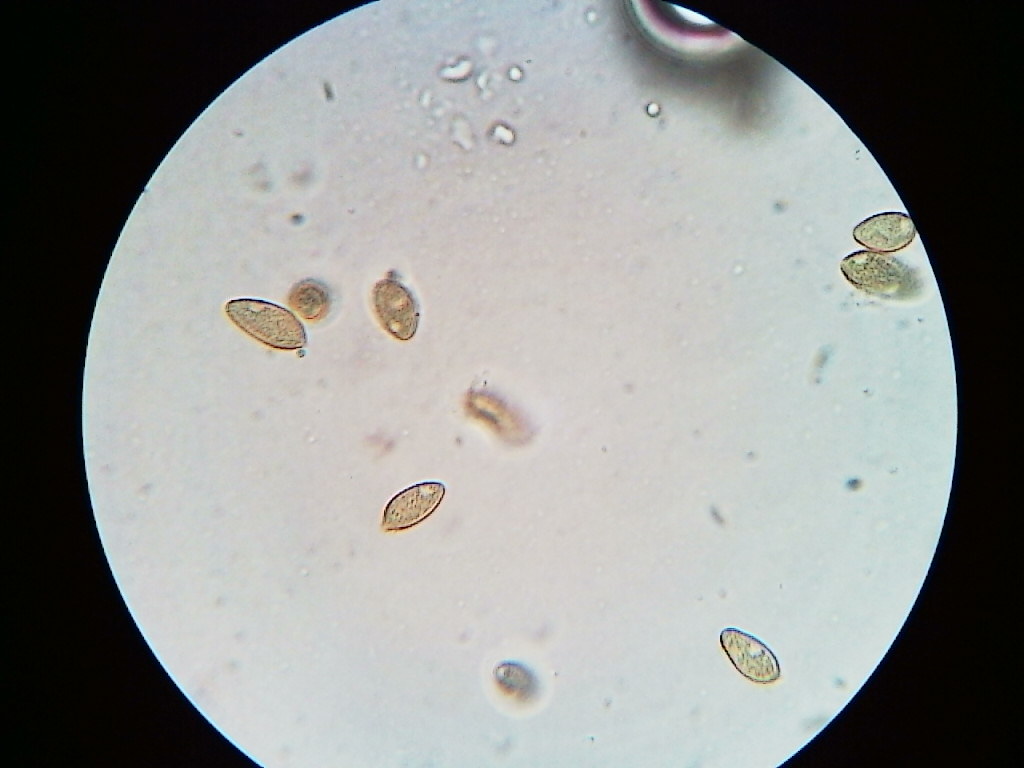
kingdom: Fungi
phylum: Basidiomycota
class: Agaricomycetes
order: Agaricales
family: Hymenogastraceae
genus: Hebeloma
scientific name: Hebeloma crustuliniforme
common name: Poison pie
